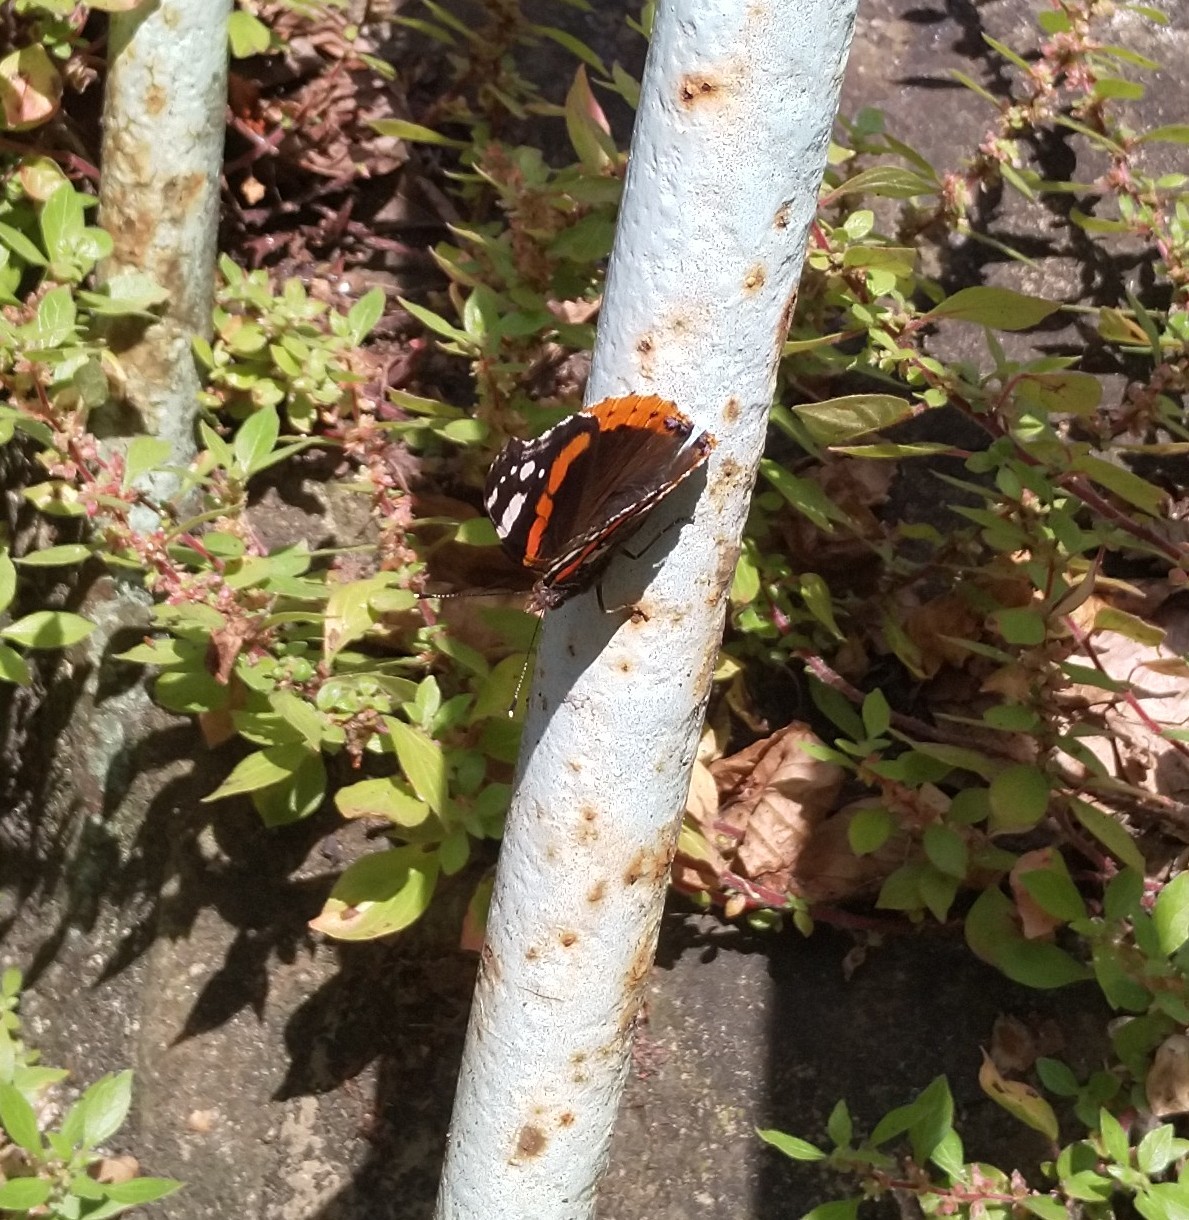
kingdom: Animalia
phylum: Arthropoda
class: Insecta
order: Lepidoptera
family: Nymphalidae
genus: Vanessa
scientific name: Vanessa atalanta
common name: Red admiral
